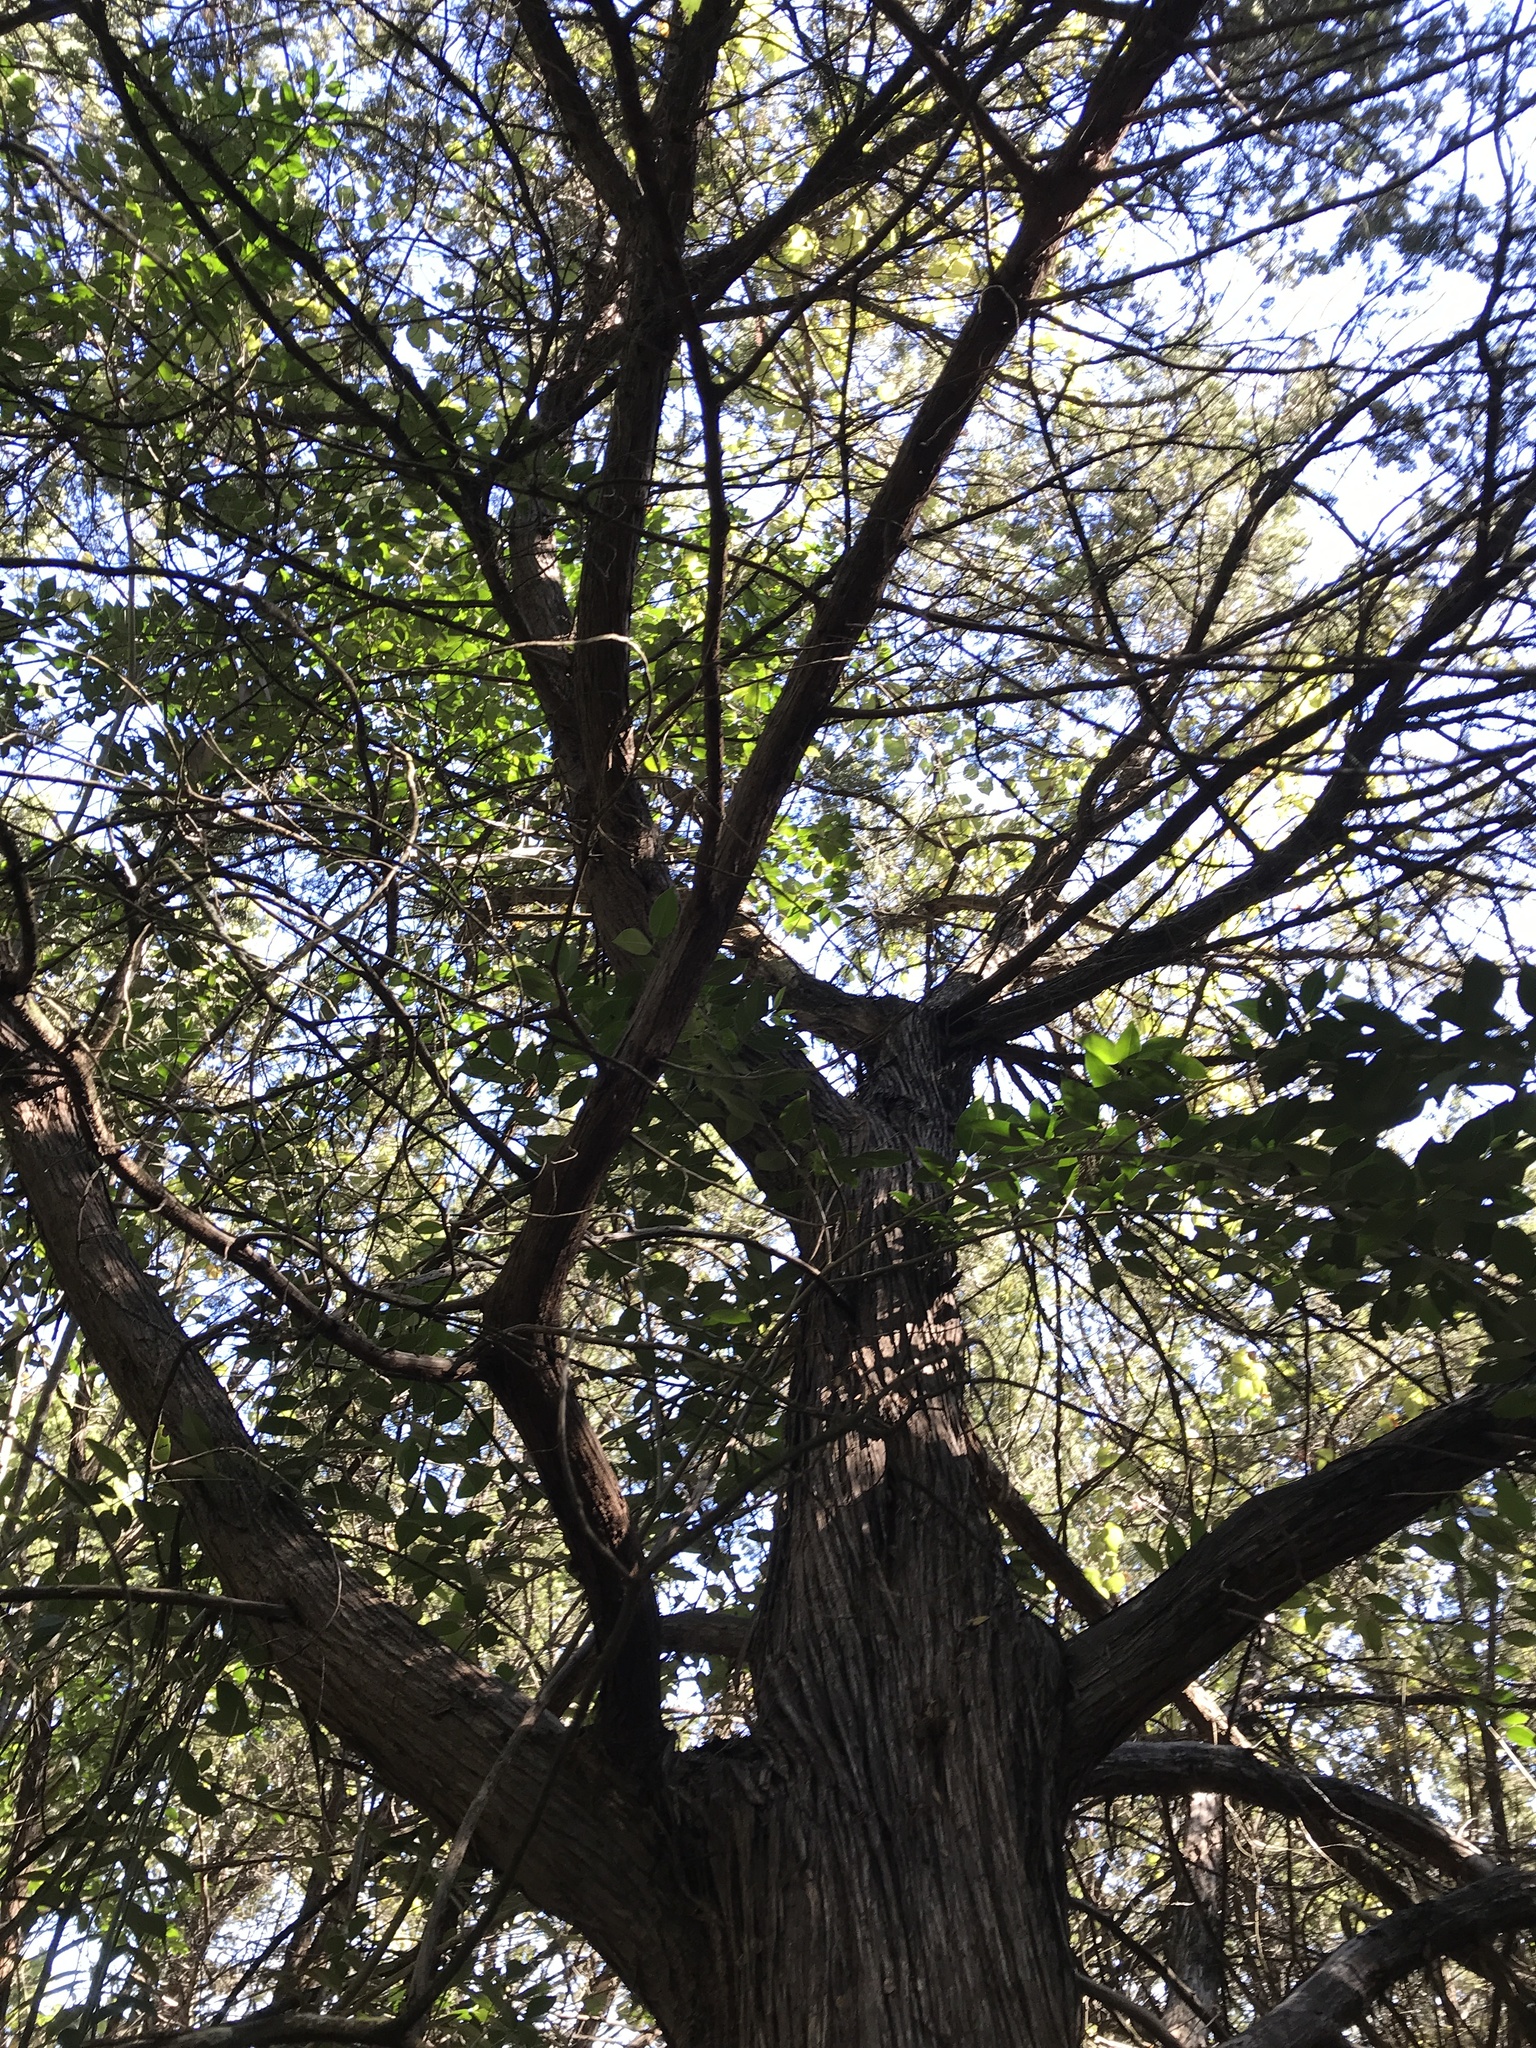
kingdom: Plantae
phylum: Tracheophyta
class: Pinopsida
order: Pinales
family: Cupressaceae
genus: Juniperus
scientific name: Juniperus ashei
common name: Mexican juniper
